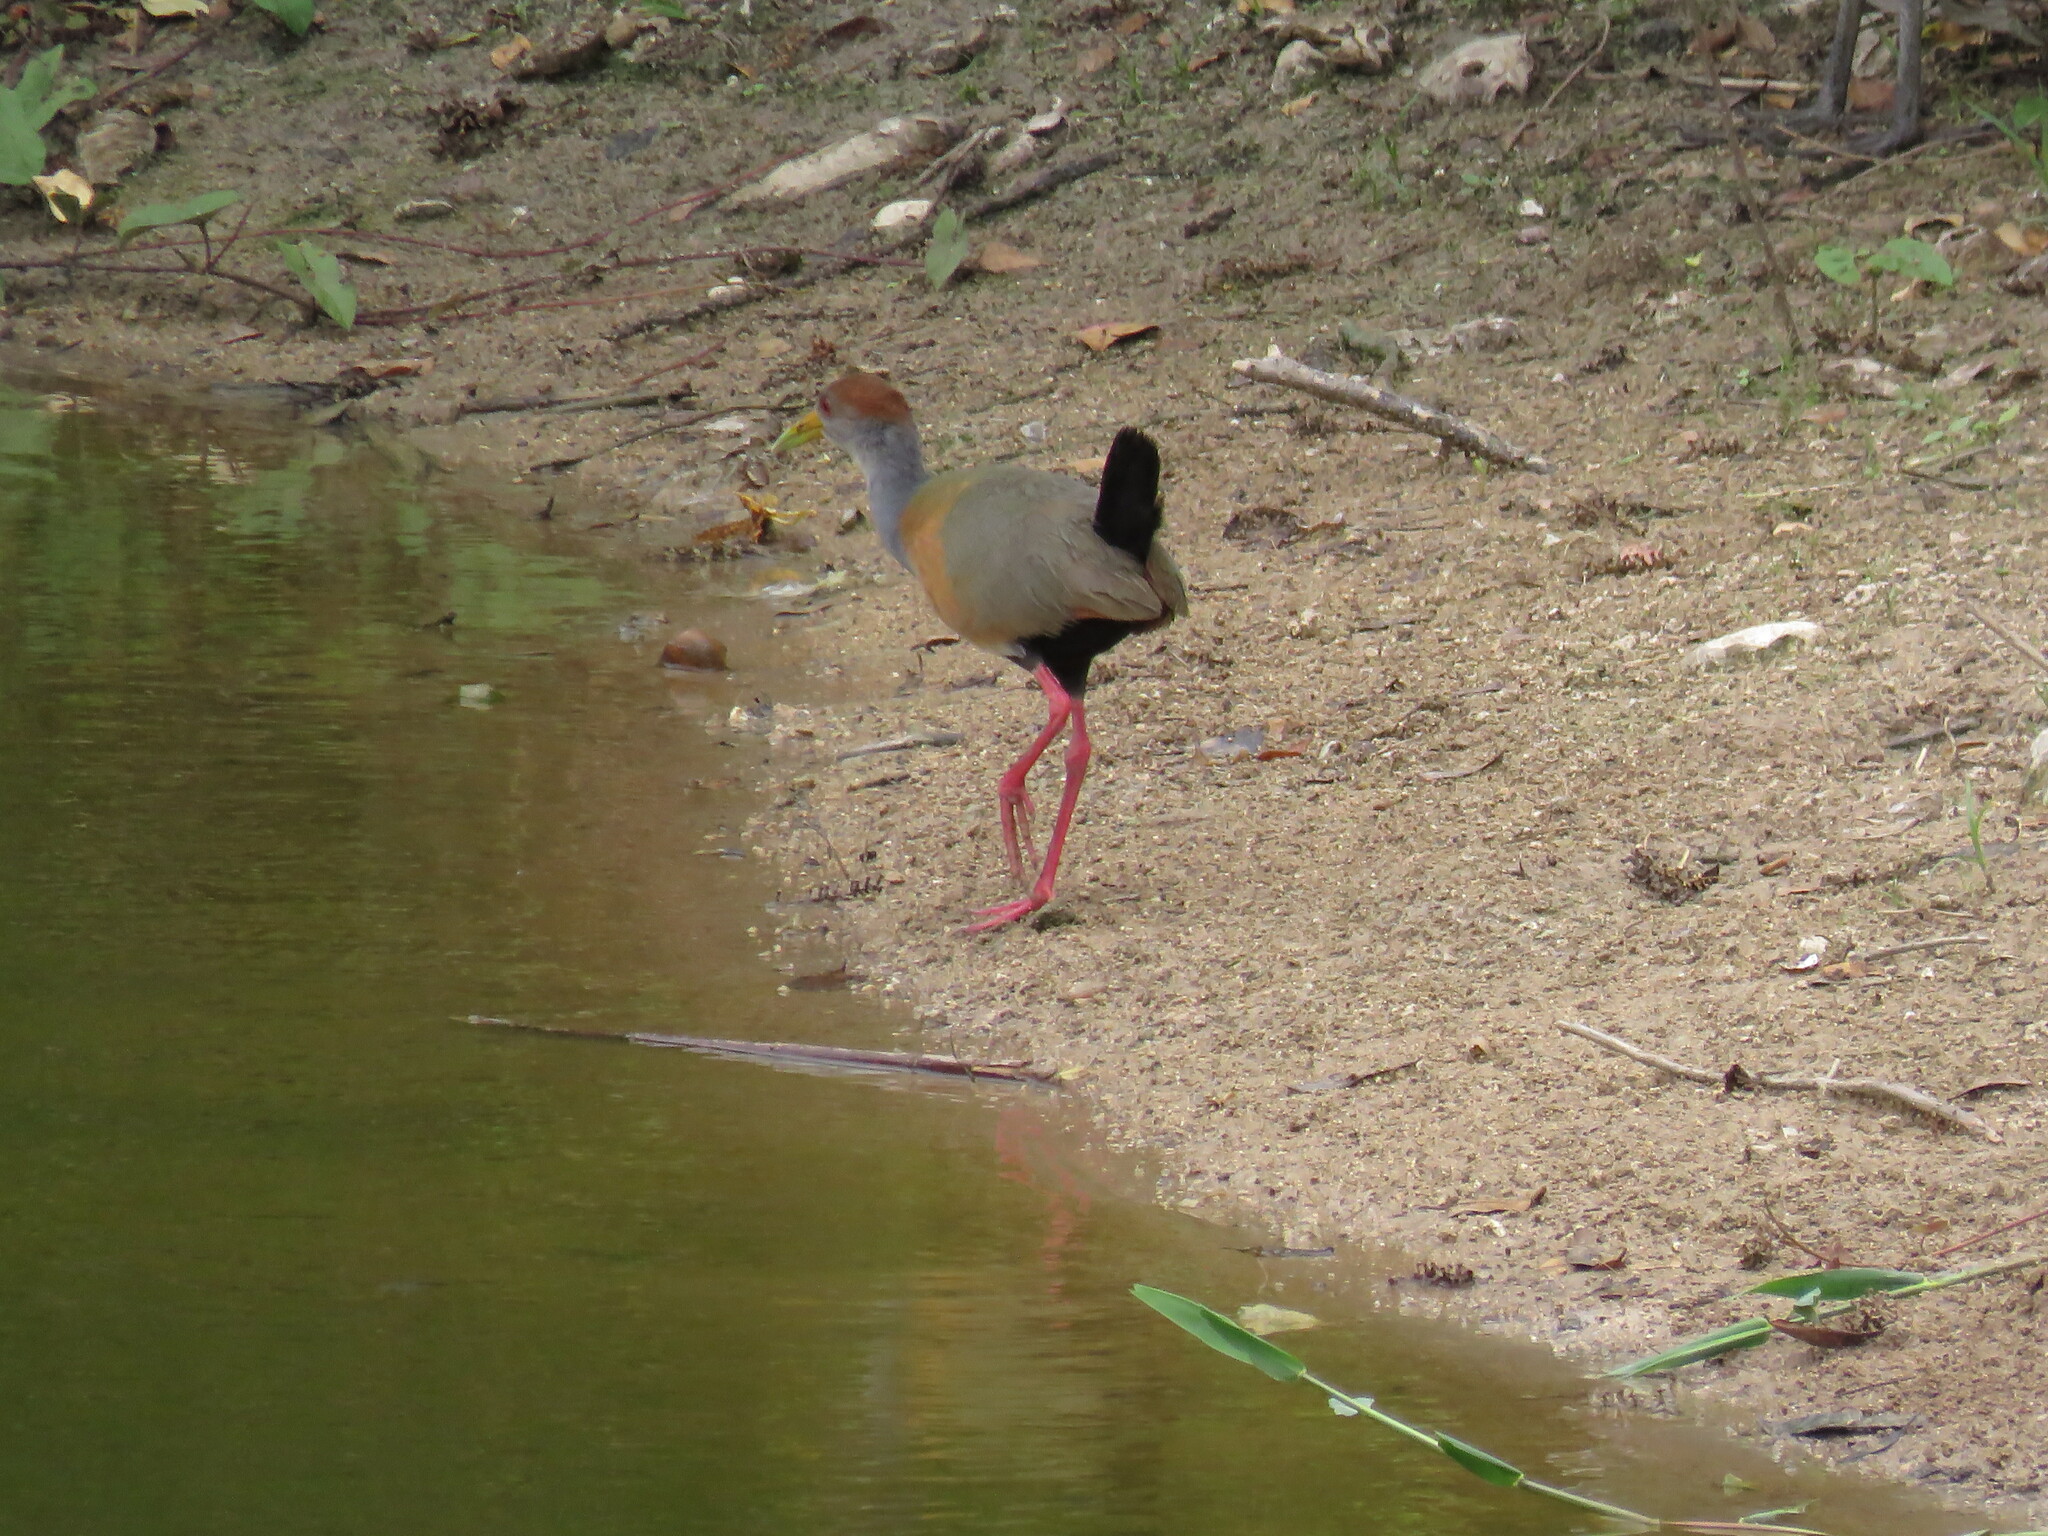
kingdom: Animalia
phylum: Chordata
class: Aves
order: Gruiformes
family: Rallidae
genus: Aramides
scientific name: Aramides albiventris
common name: Russet-naped wood-rail
